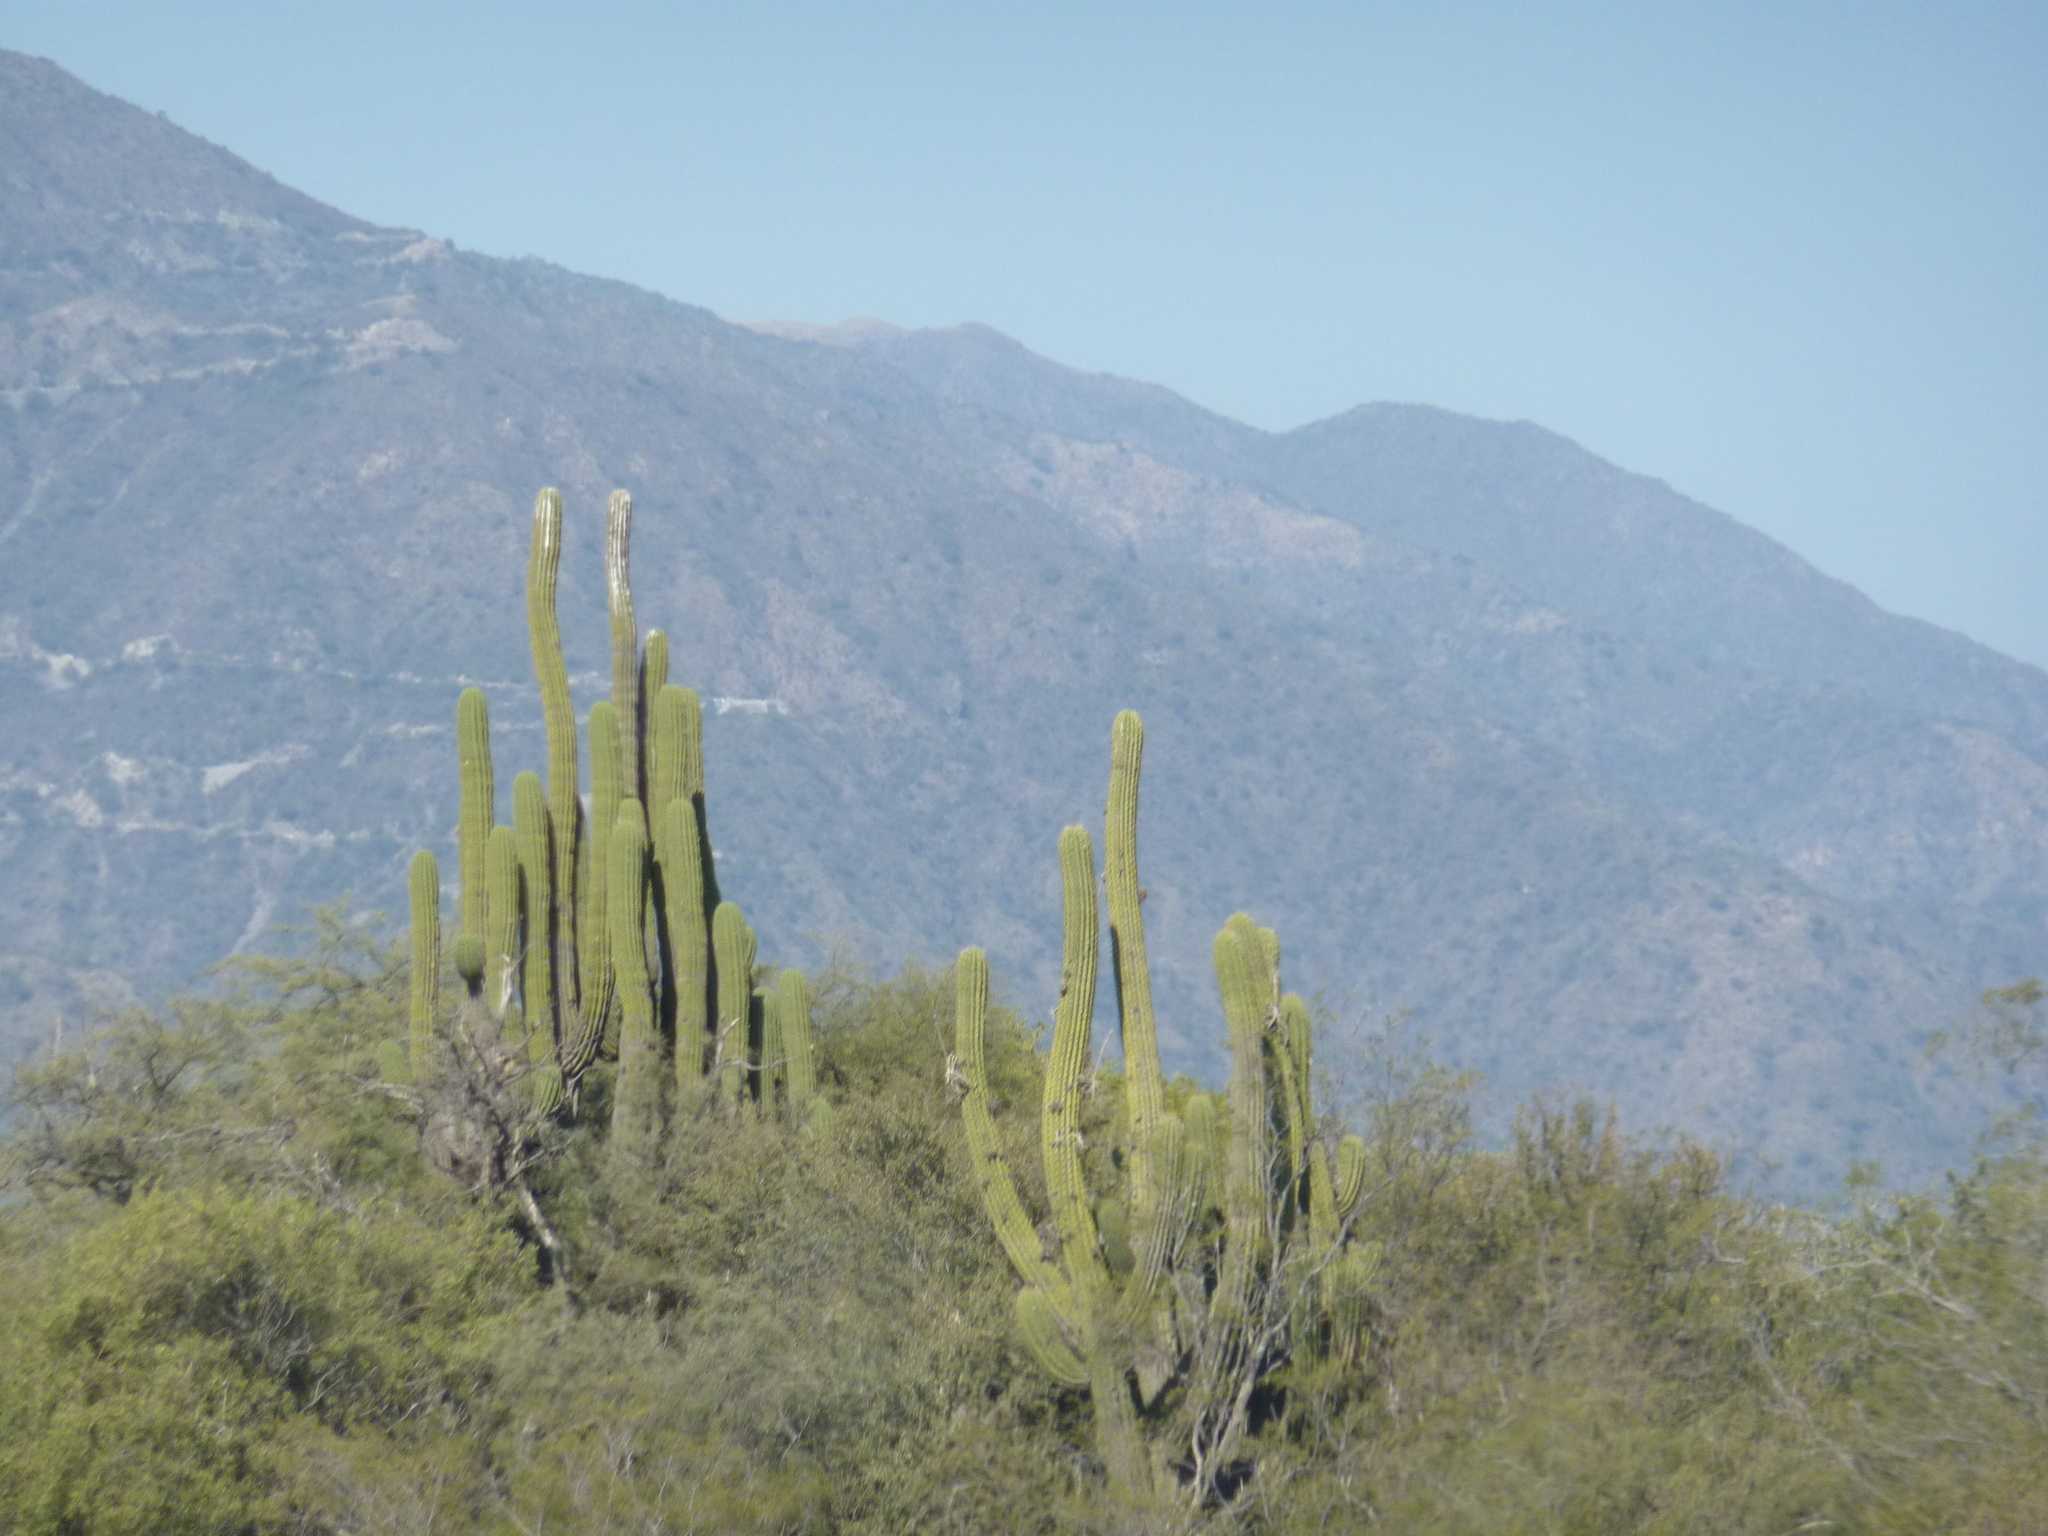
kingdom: Plantae
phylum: Tracheophyta
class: Magnoliopsida
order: Caryophyllales
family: Cactaceae
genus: Leucostele
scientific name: Leucostele terscheckii
